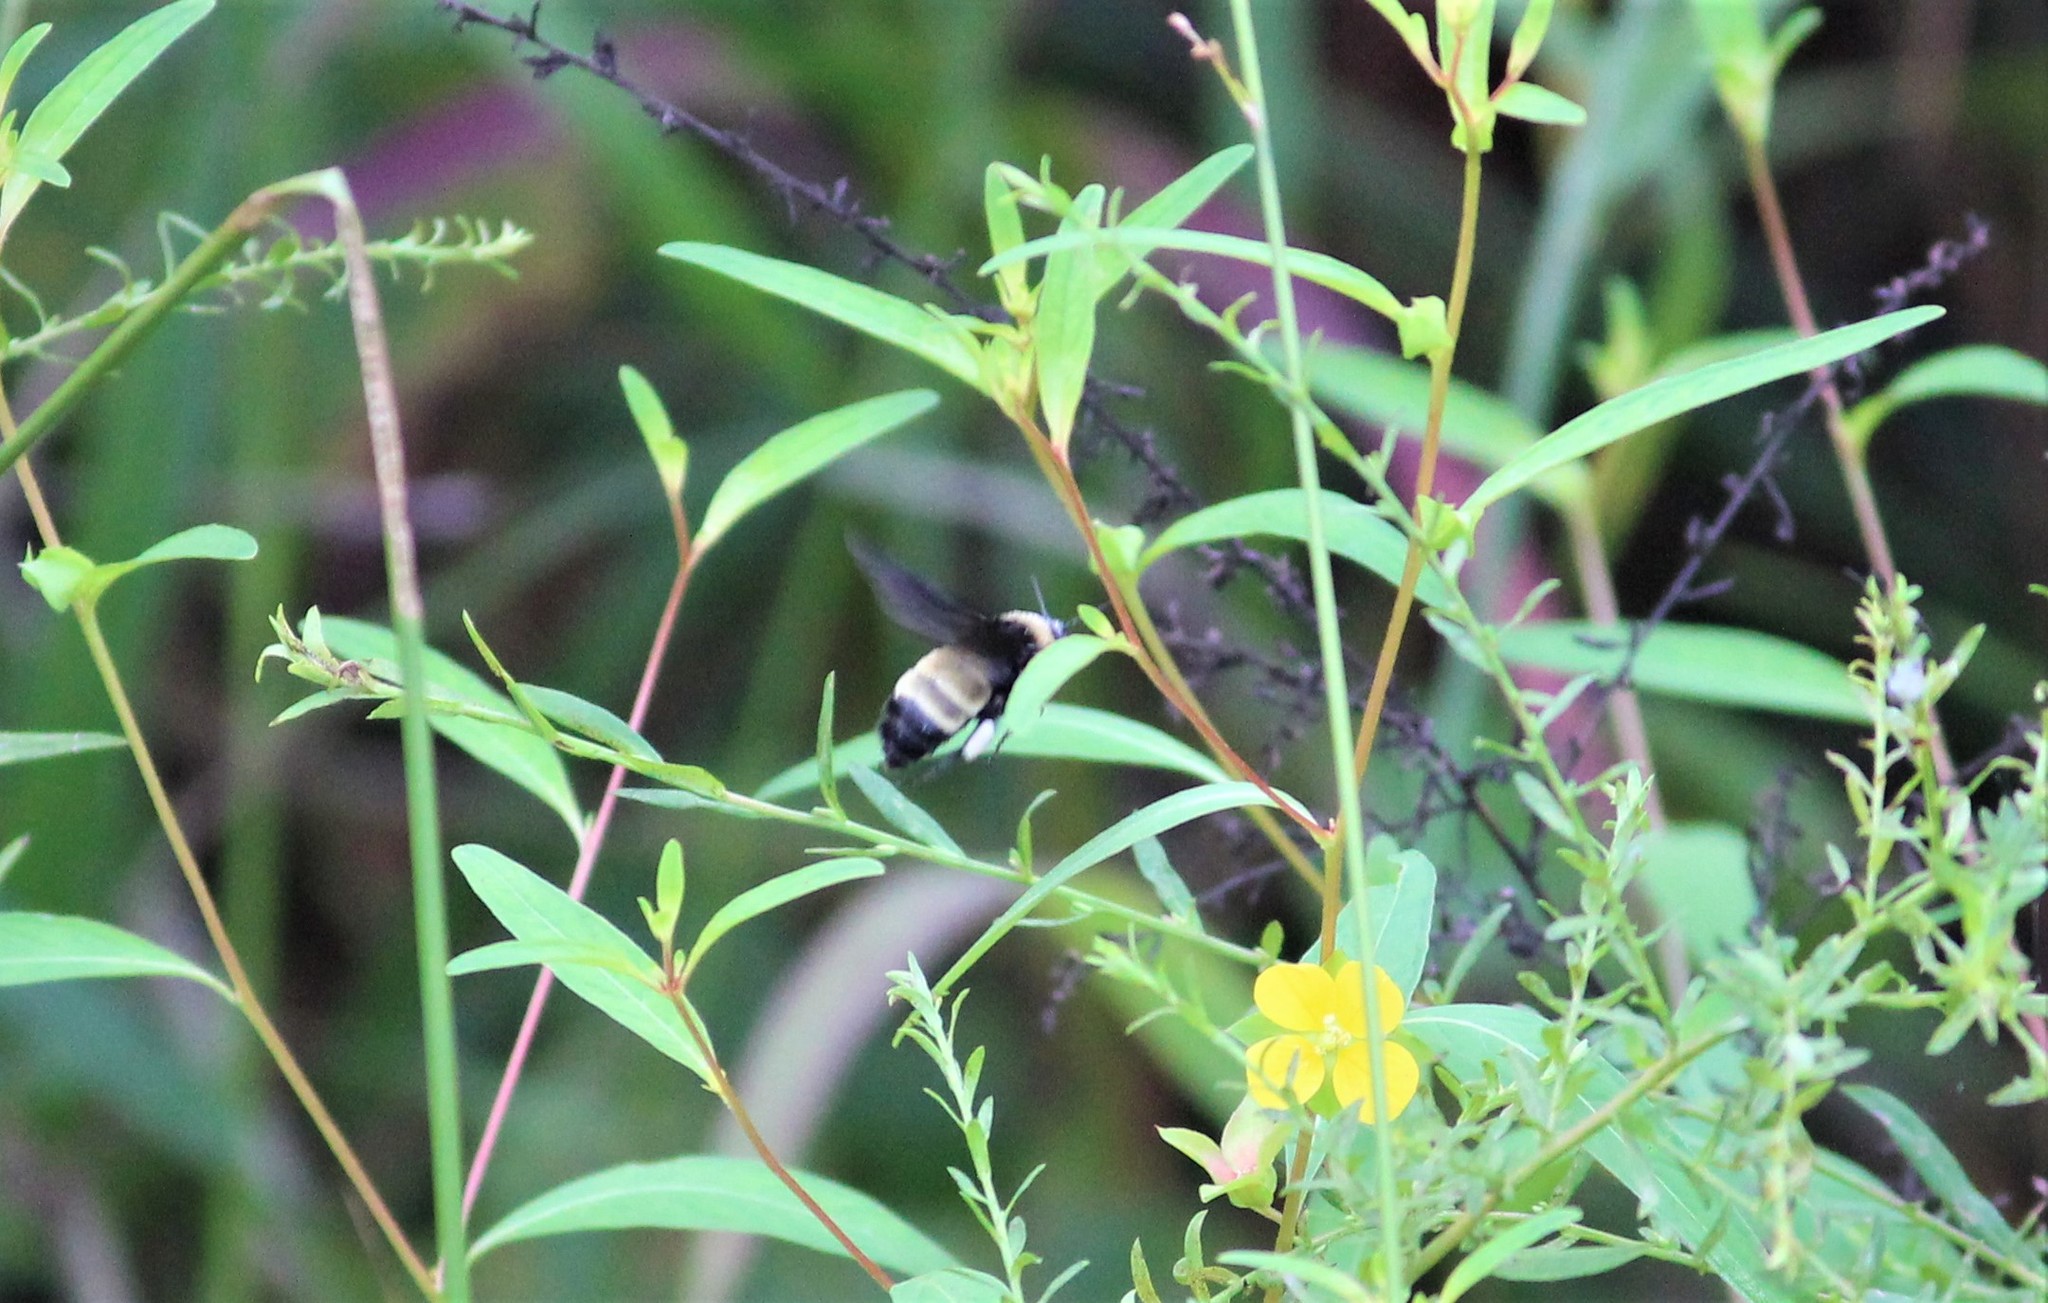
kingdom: Animalia
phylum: Arthropoda
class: Insecta
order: Hymenoptera
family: Apidae
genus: Bombus
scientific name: Bombus pensylvanicus
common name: Bumble bee
